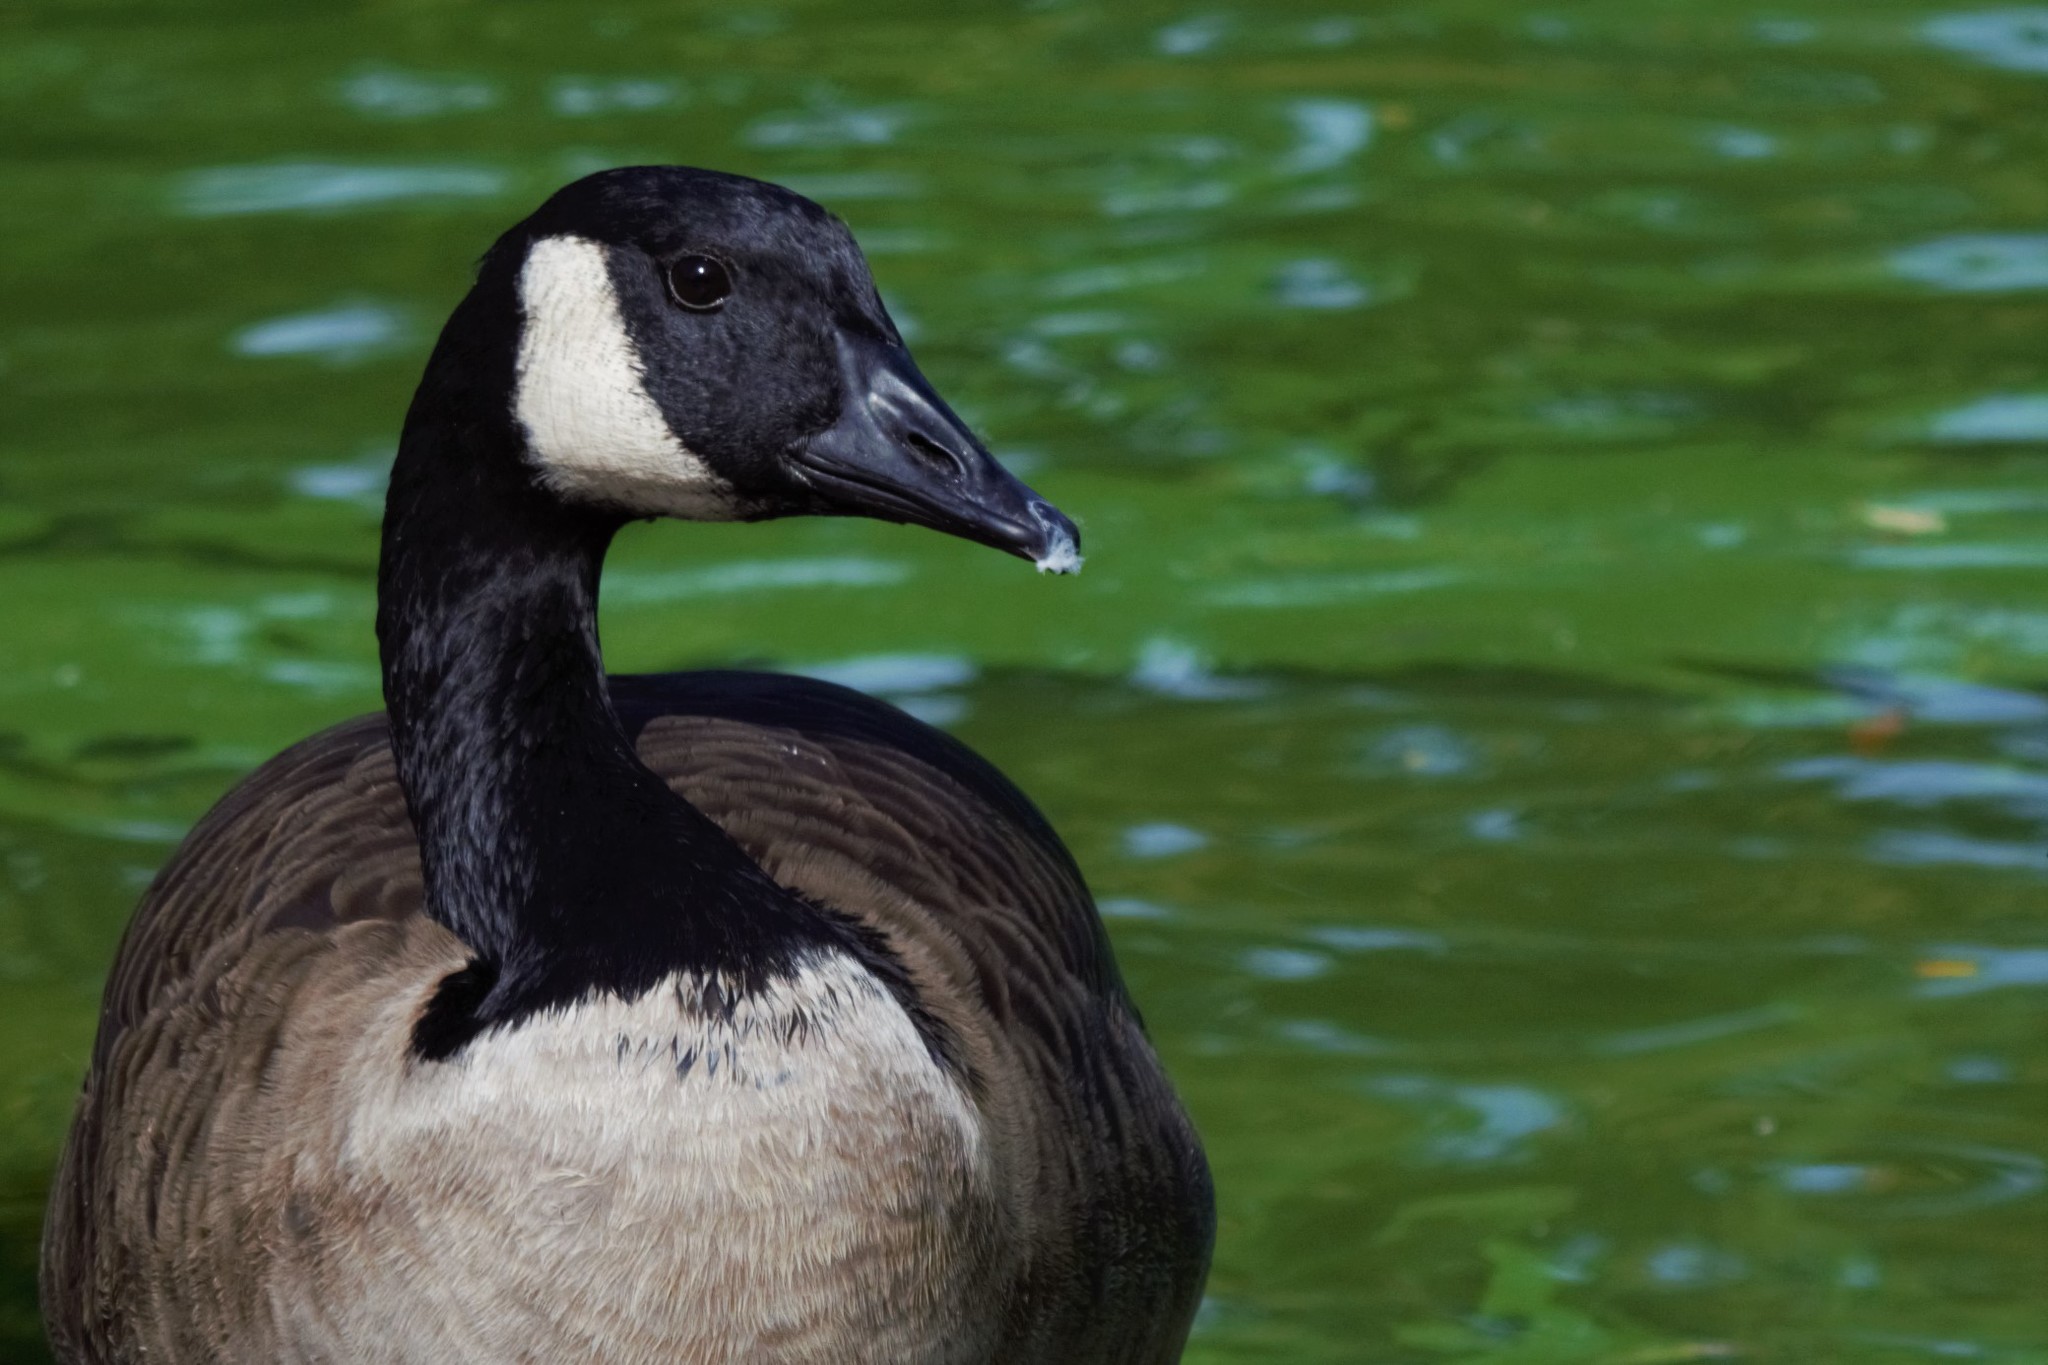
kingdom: Animalia
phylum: Chordata
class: Aves
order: Anseriformes
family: Anatidae
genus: Branta
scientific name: Branta canadensis
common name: Canada goose
